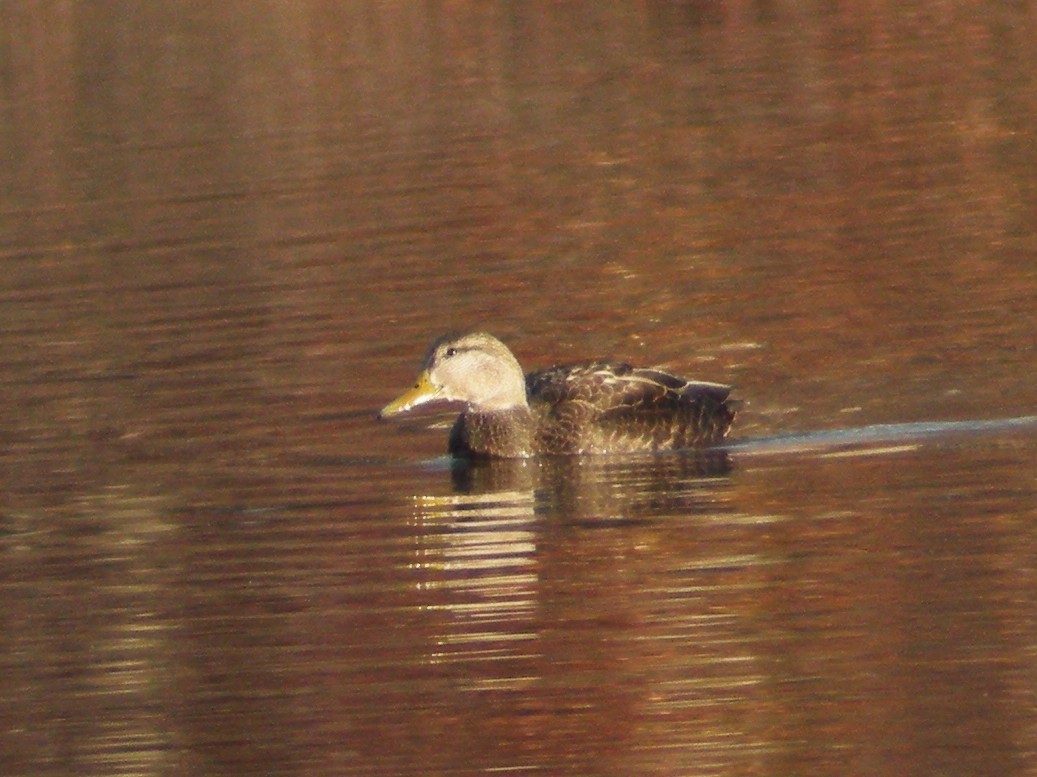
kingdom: Animalia
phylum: Chordata
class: Aves
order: Anseriformes
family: Anatidae
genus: Anas
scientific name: Anas rubripes
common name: American black duck
